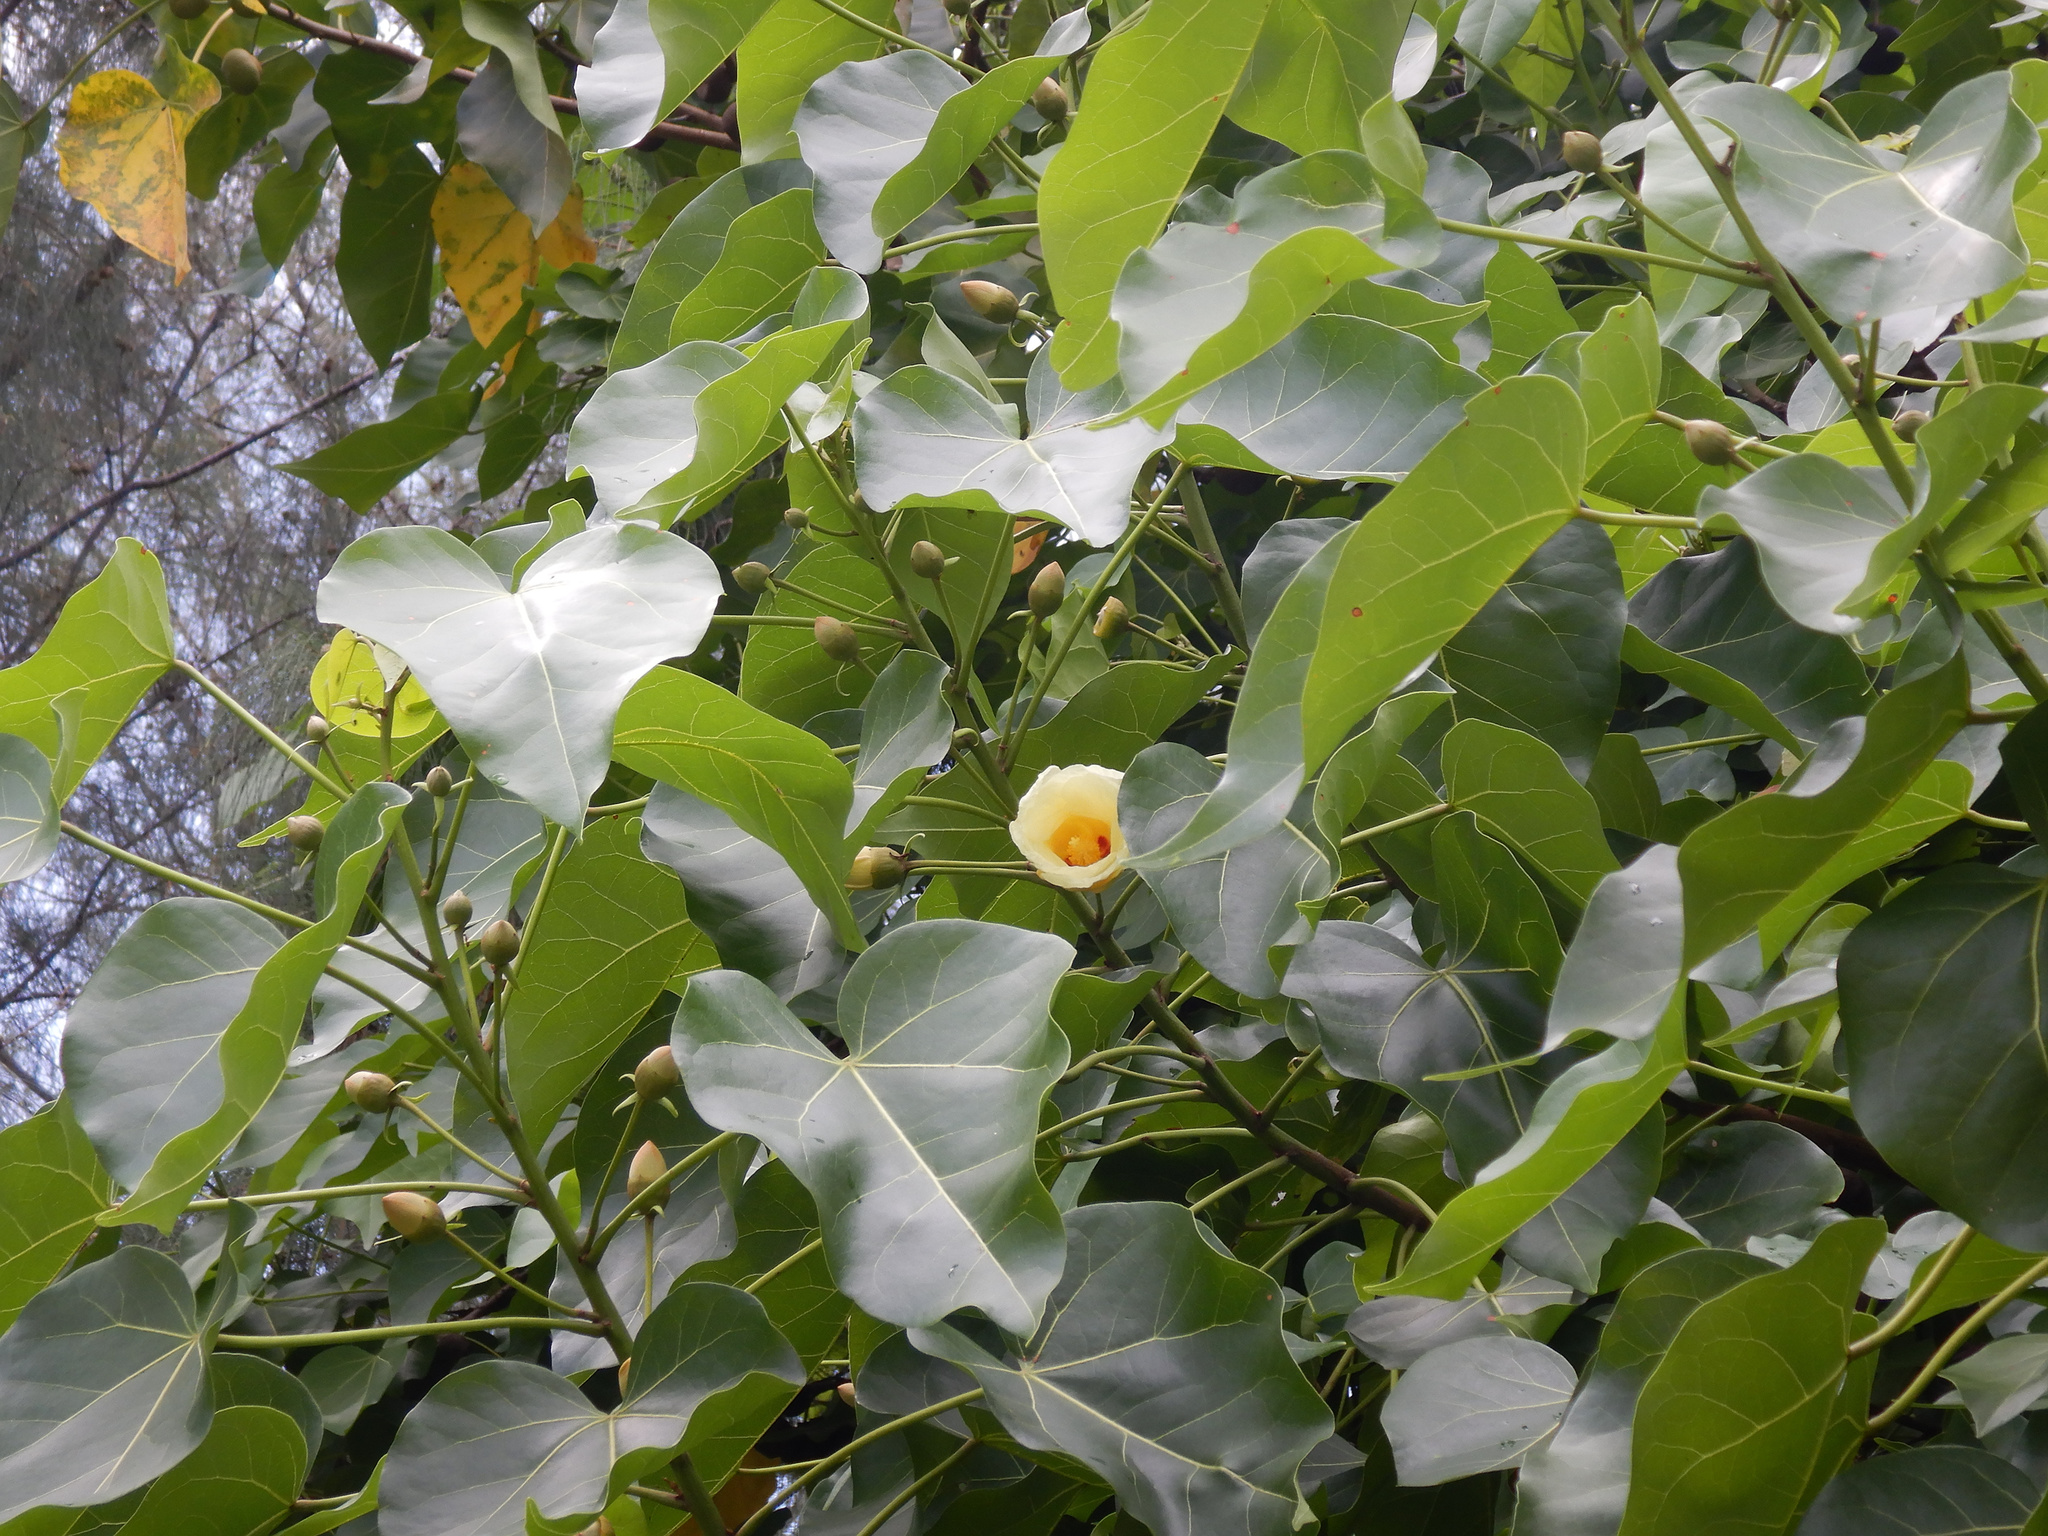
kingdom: Plantae
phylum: Tracheophyta
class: Magnoliopsida
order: Malvales
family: Malvaceae
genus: Thespesia
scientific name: Thespesia populnea
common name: Seaside mahoe
